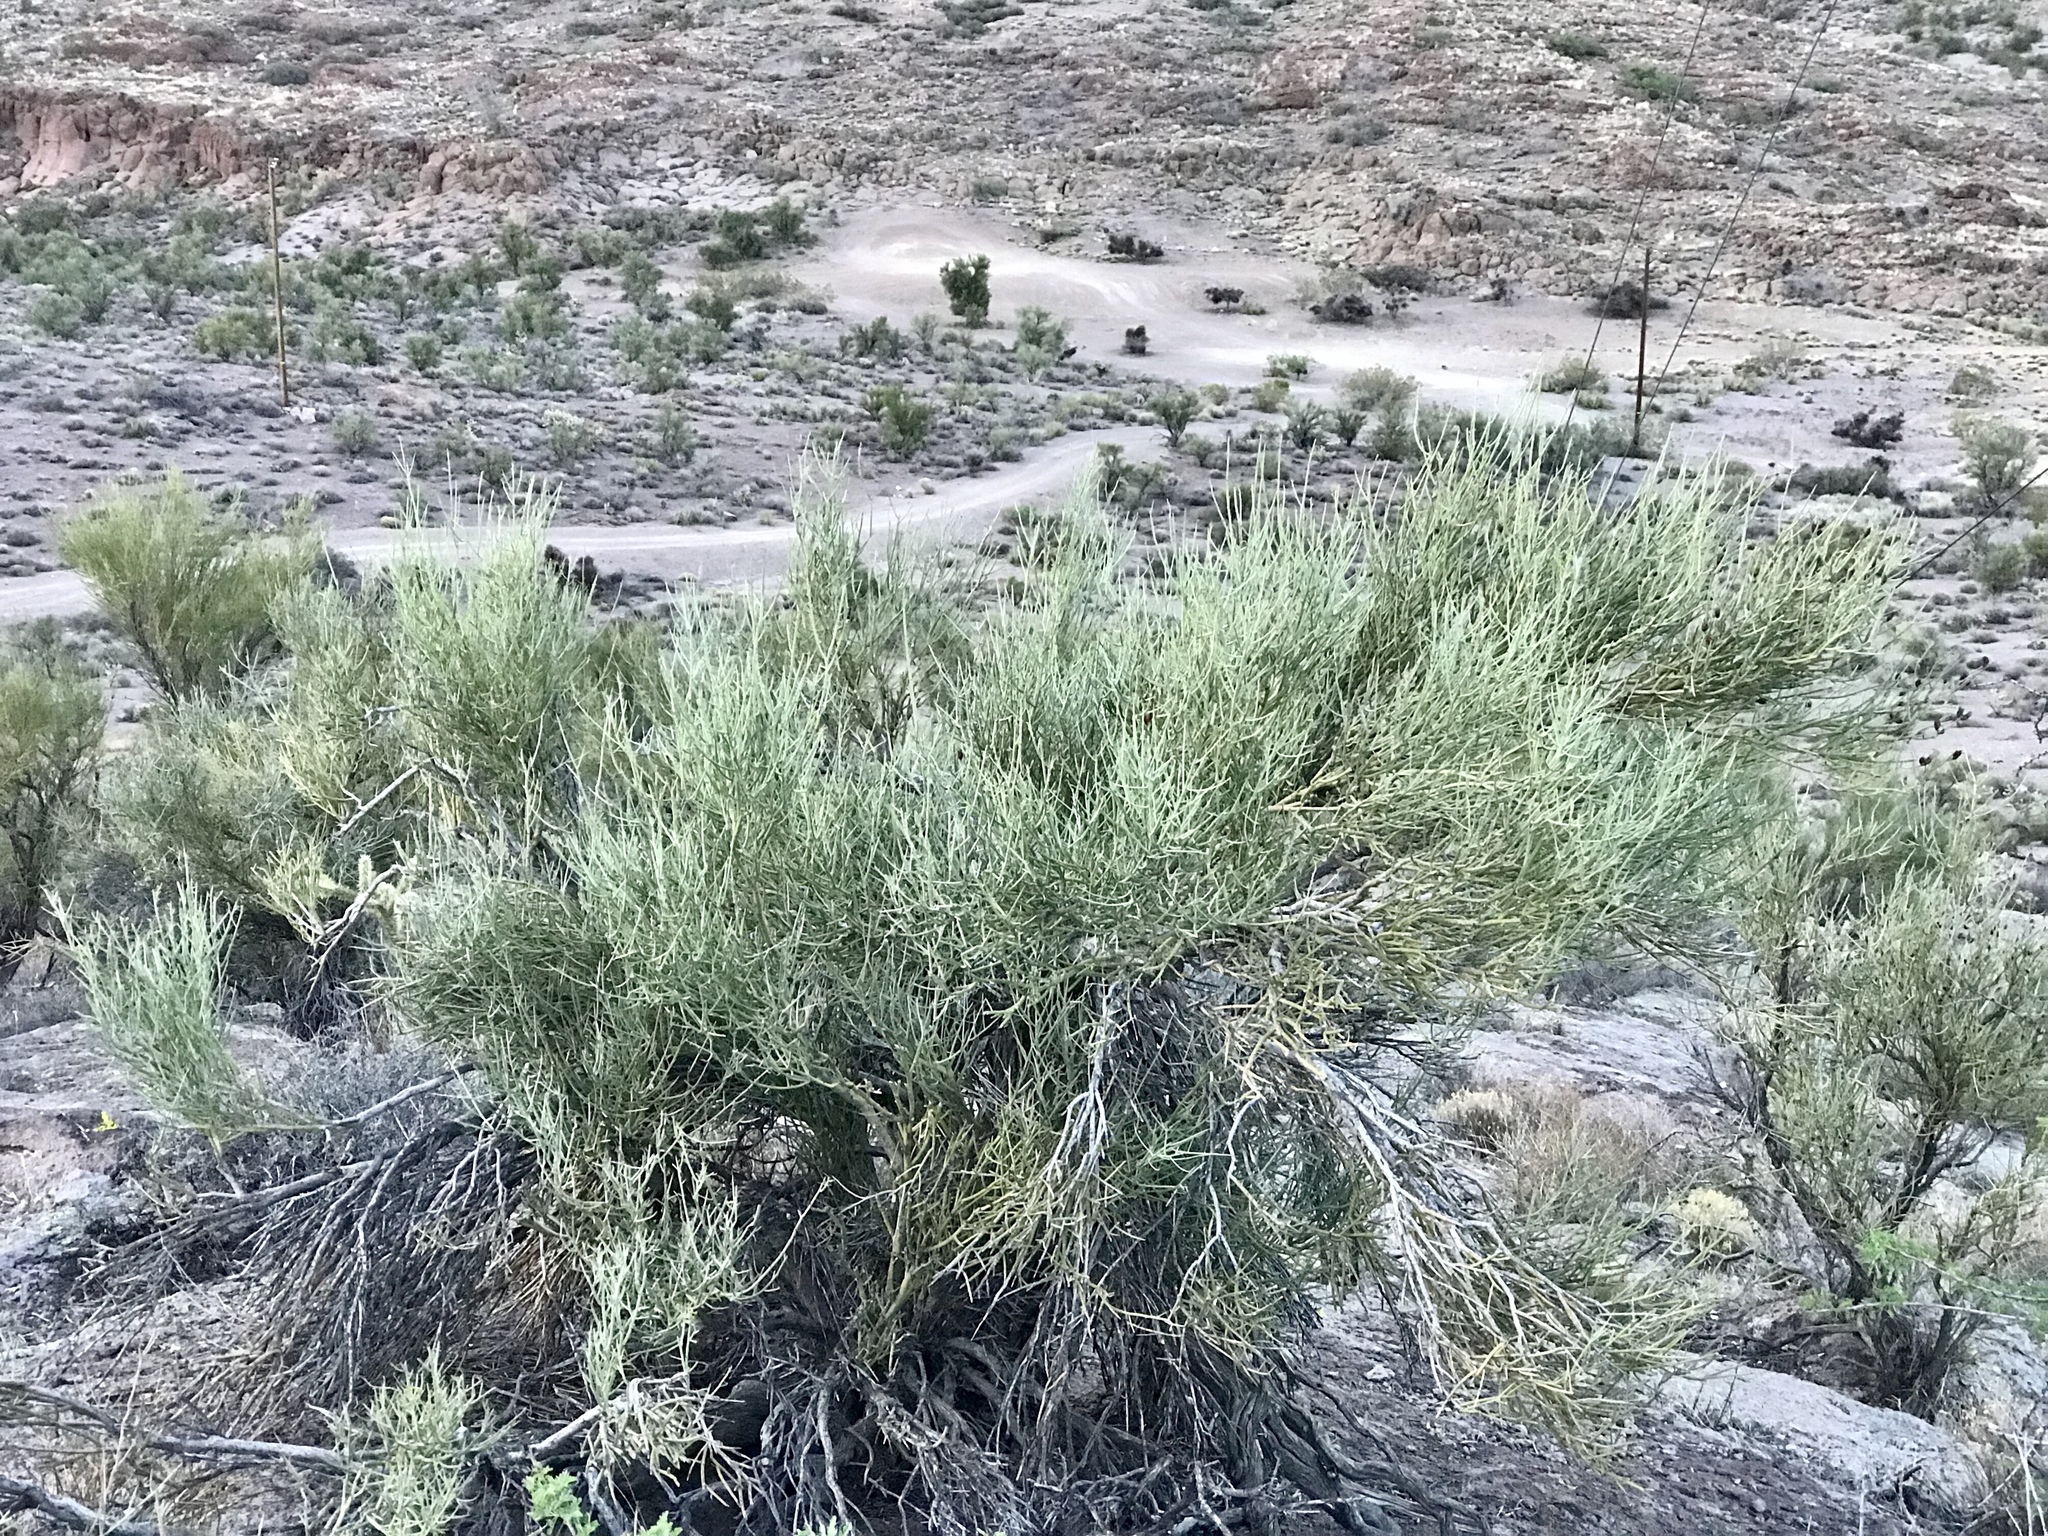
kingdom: Plantae
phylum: Tracheophyta
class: Magnoliopsida
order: Celastrales
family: Celastraceae
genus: Canotia
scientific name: Canotia holacantha
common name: Crucifixion thorns
